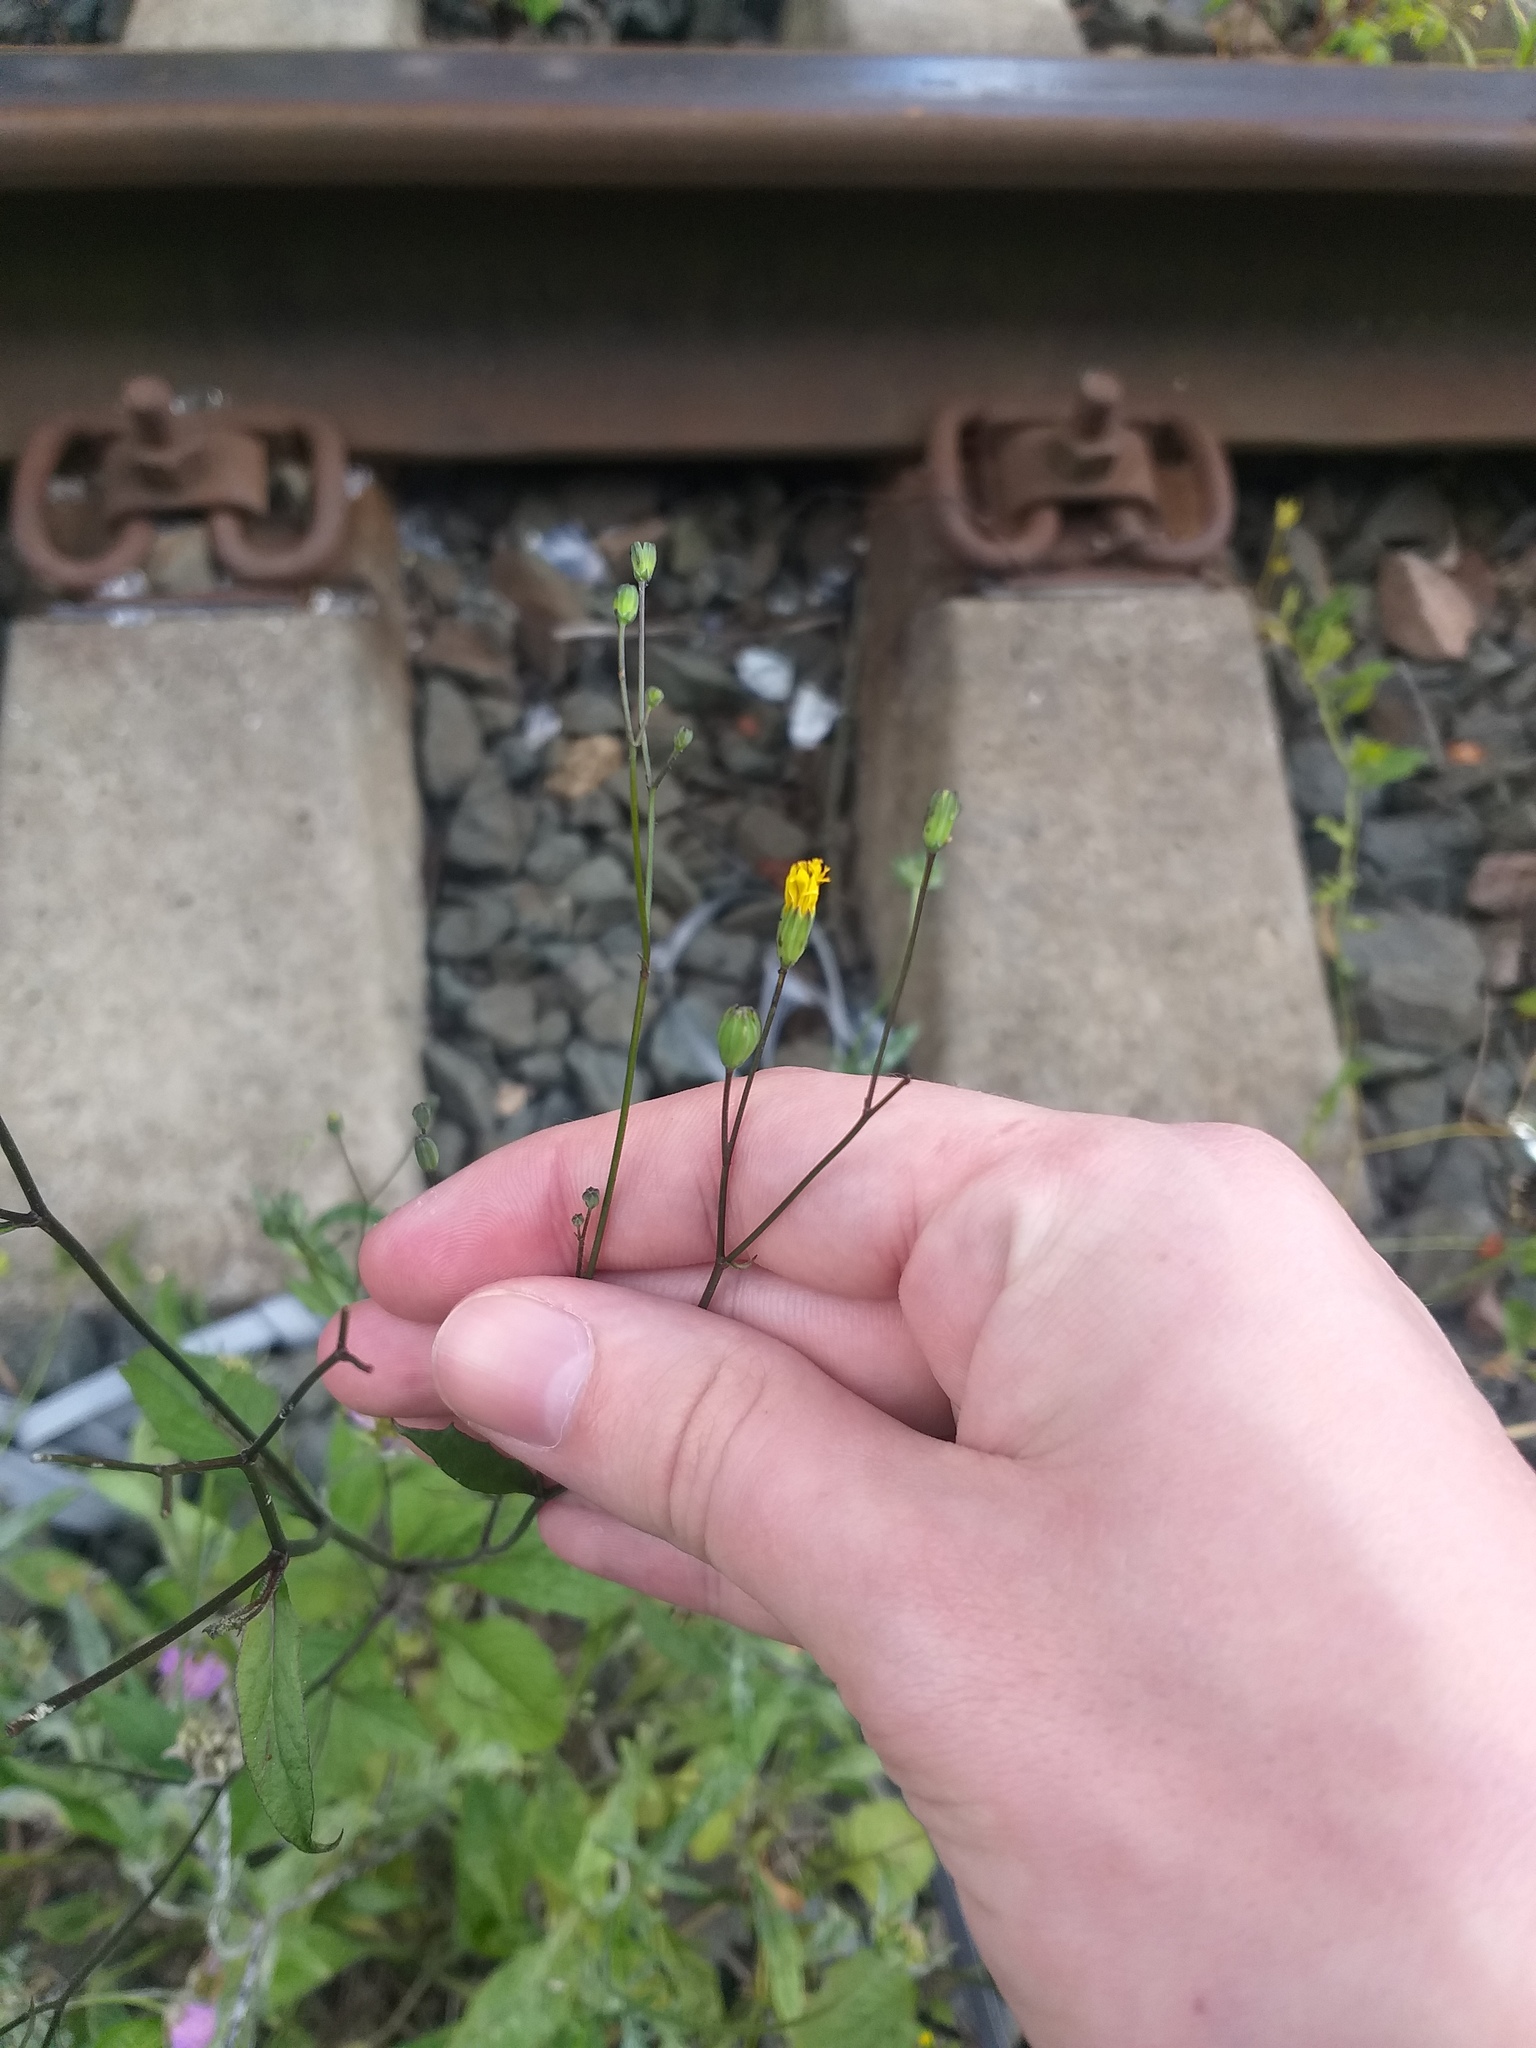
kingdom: Plantae
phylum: Tracheophyta
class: Magnoliopsida
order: Asterales
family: Asteraceae
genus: Lapsana
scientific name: Lapsana communis
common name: Nipplewort
